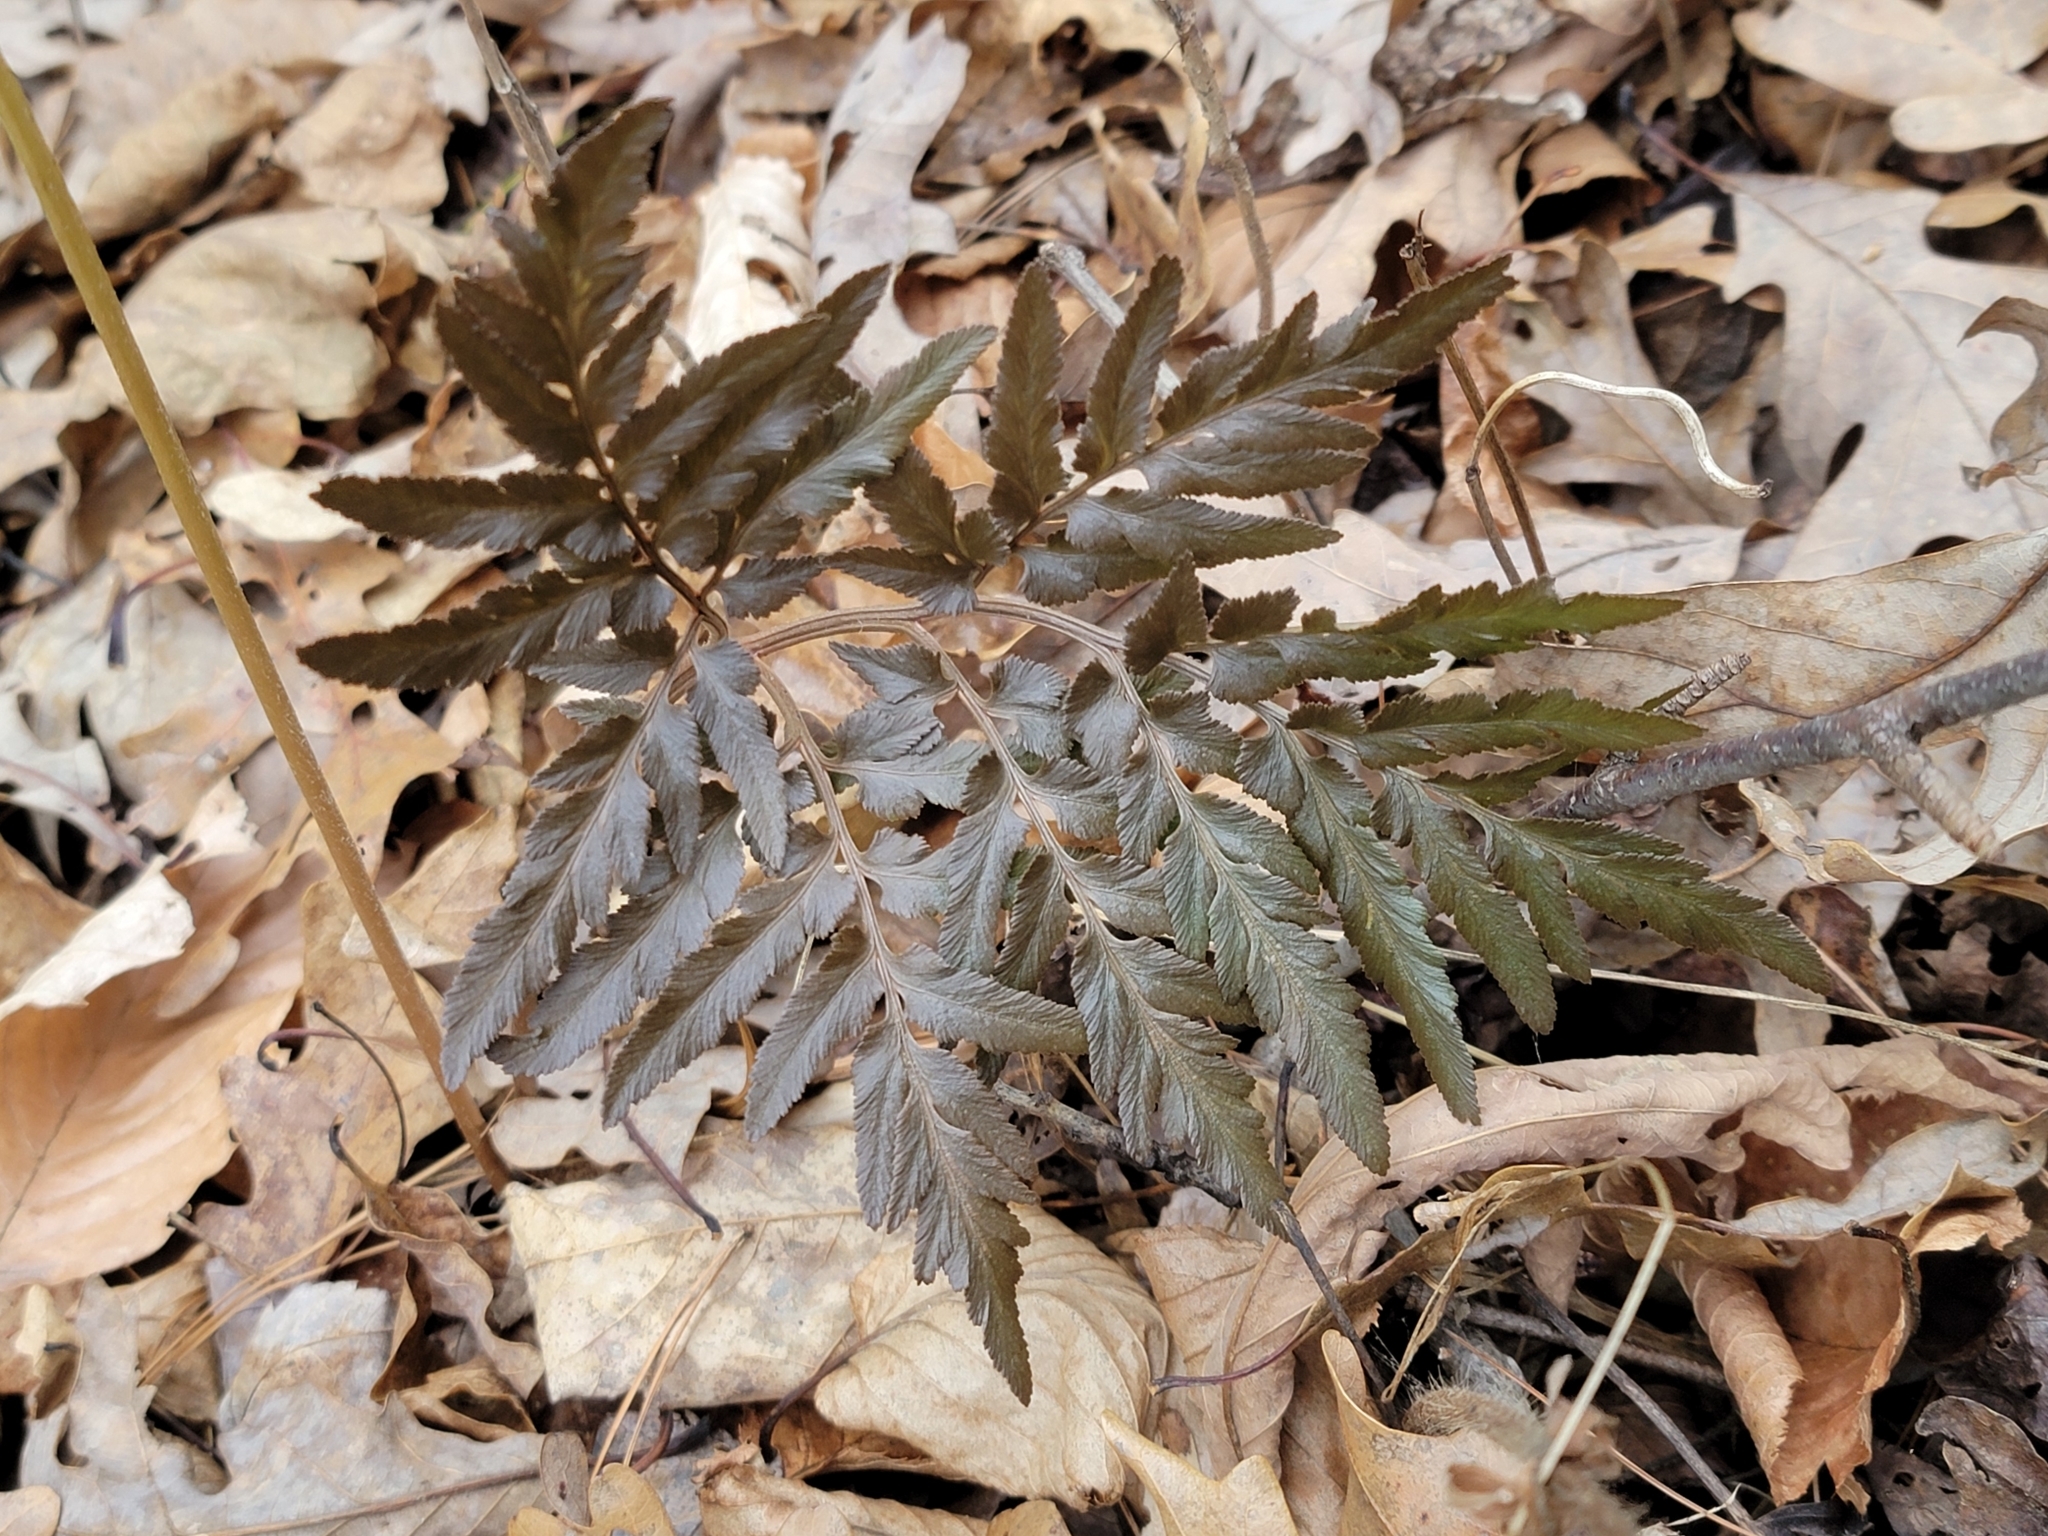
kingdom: Plantae
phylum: Tracheophyta
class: Polypodiopsida
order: Ophioglossales
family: Ophioglossaceae
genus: Sceptridium
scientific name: Sceptridium dissectum
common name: Cut-leaved grapefern
